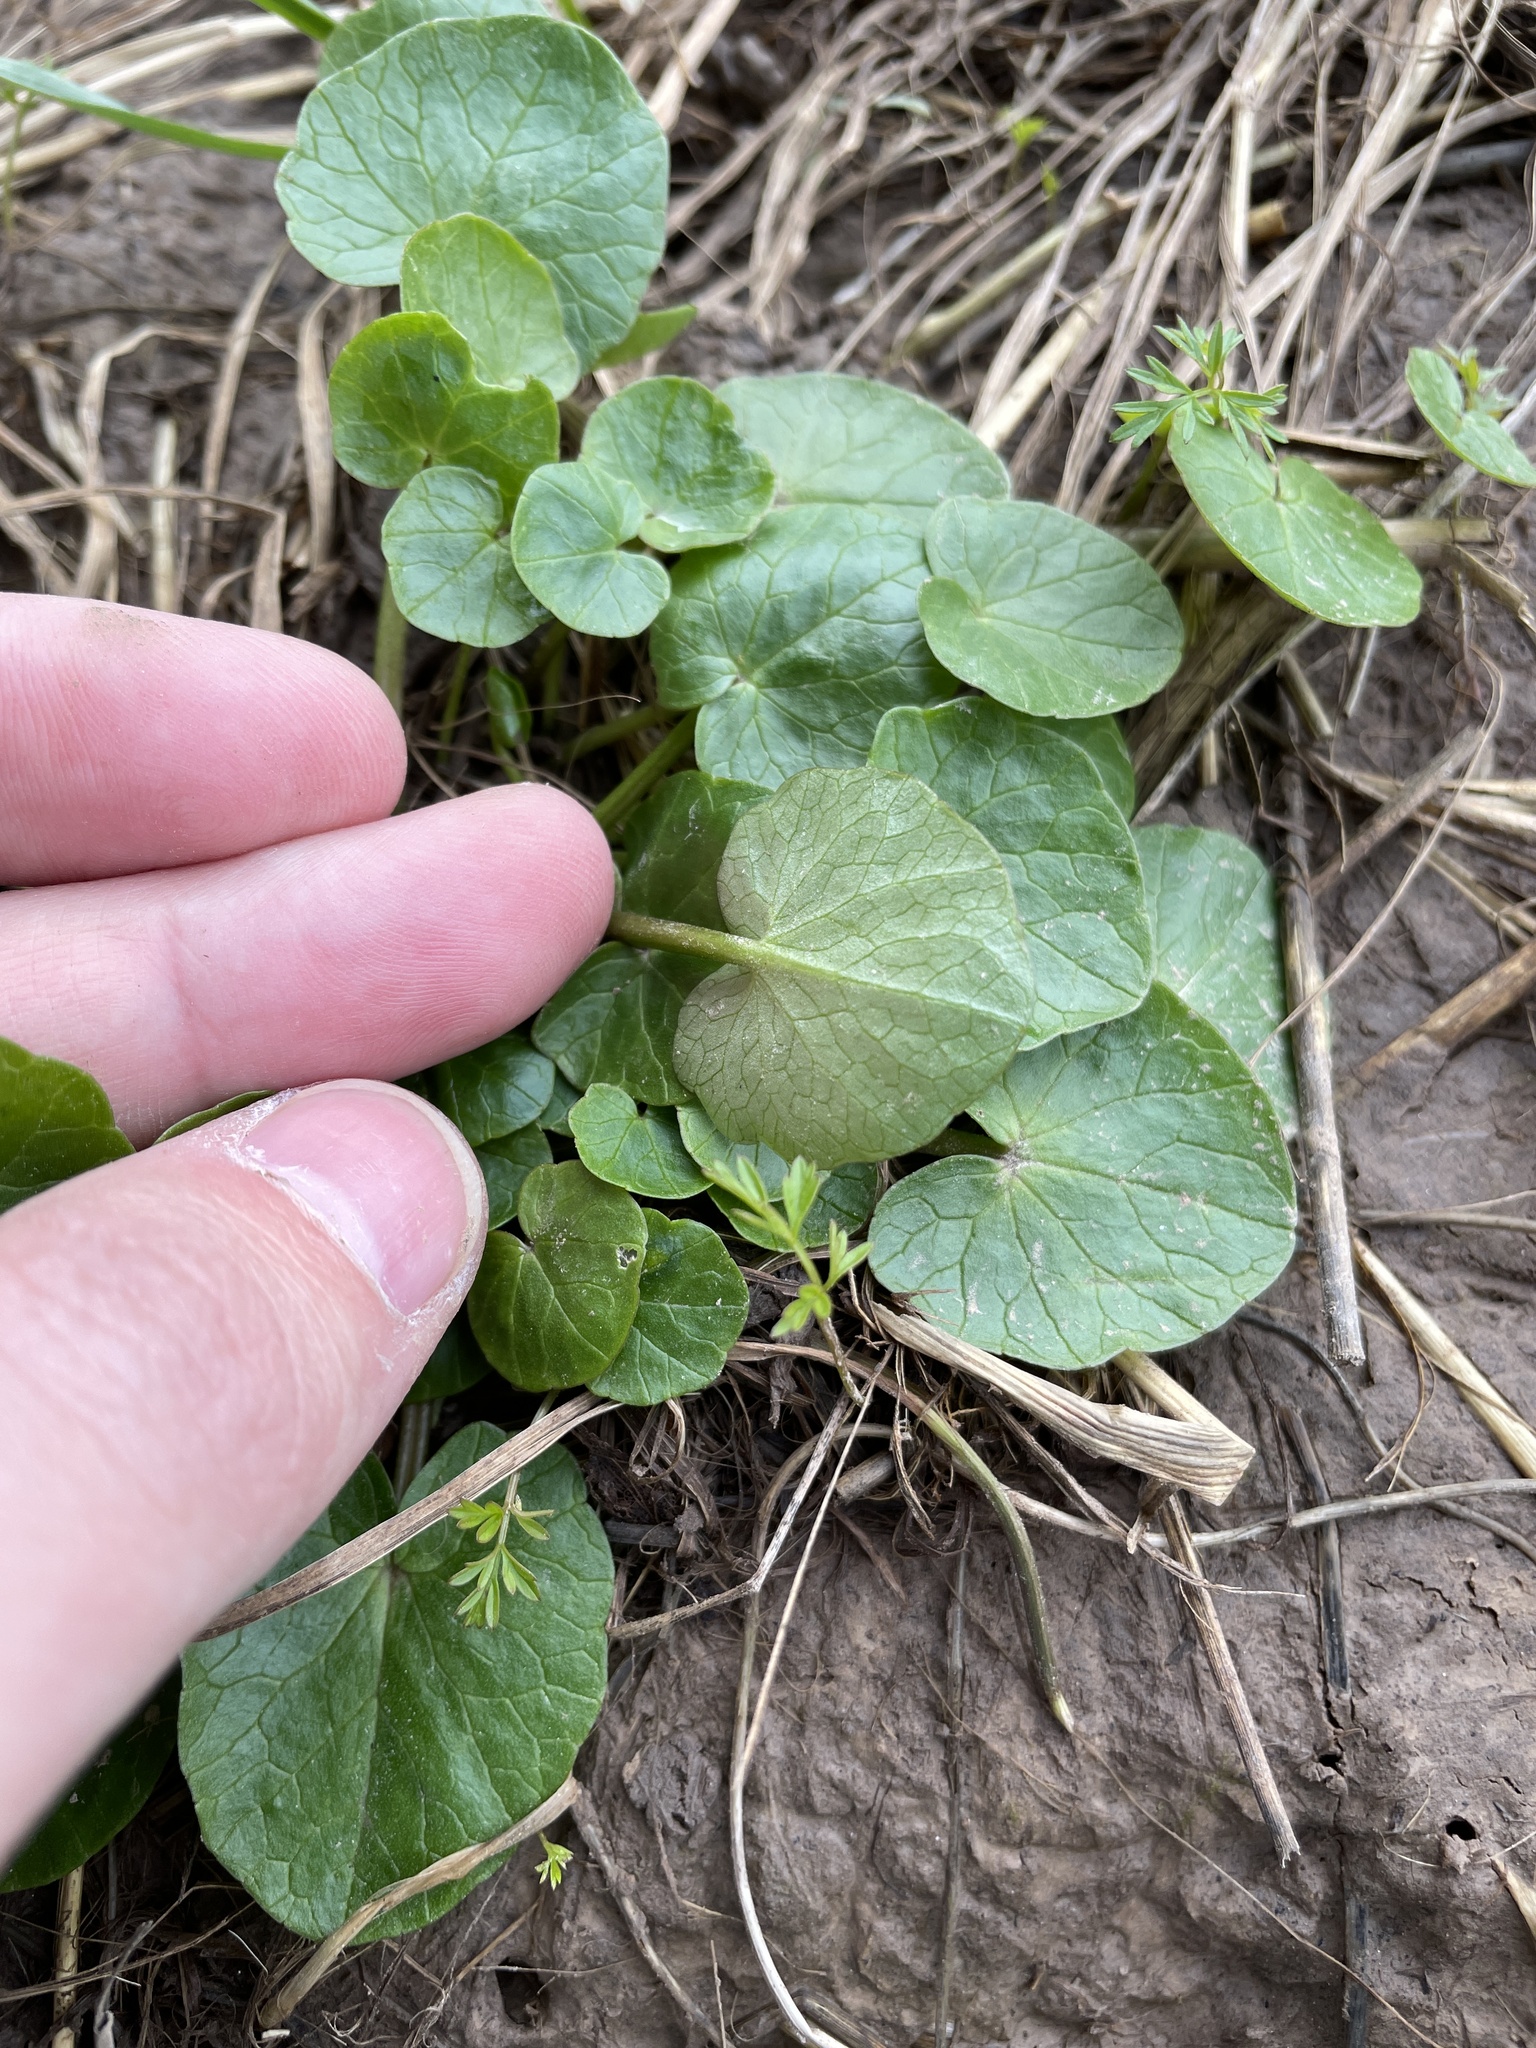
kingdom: Plantae
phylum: Tracheophyta
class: Magnoliopsida
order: Ranunculales
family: Ranunculaceae
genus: Ficaria
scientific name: Ficaria verna
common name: Lesser celandine
